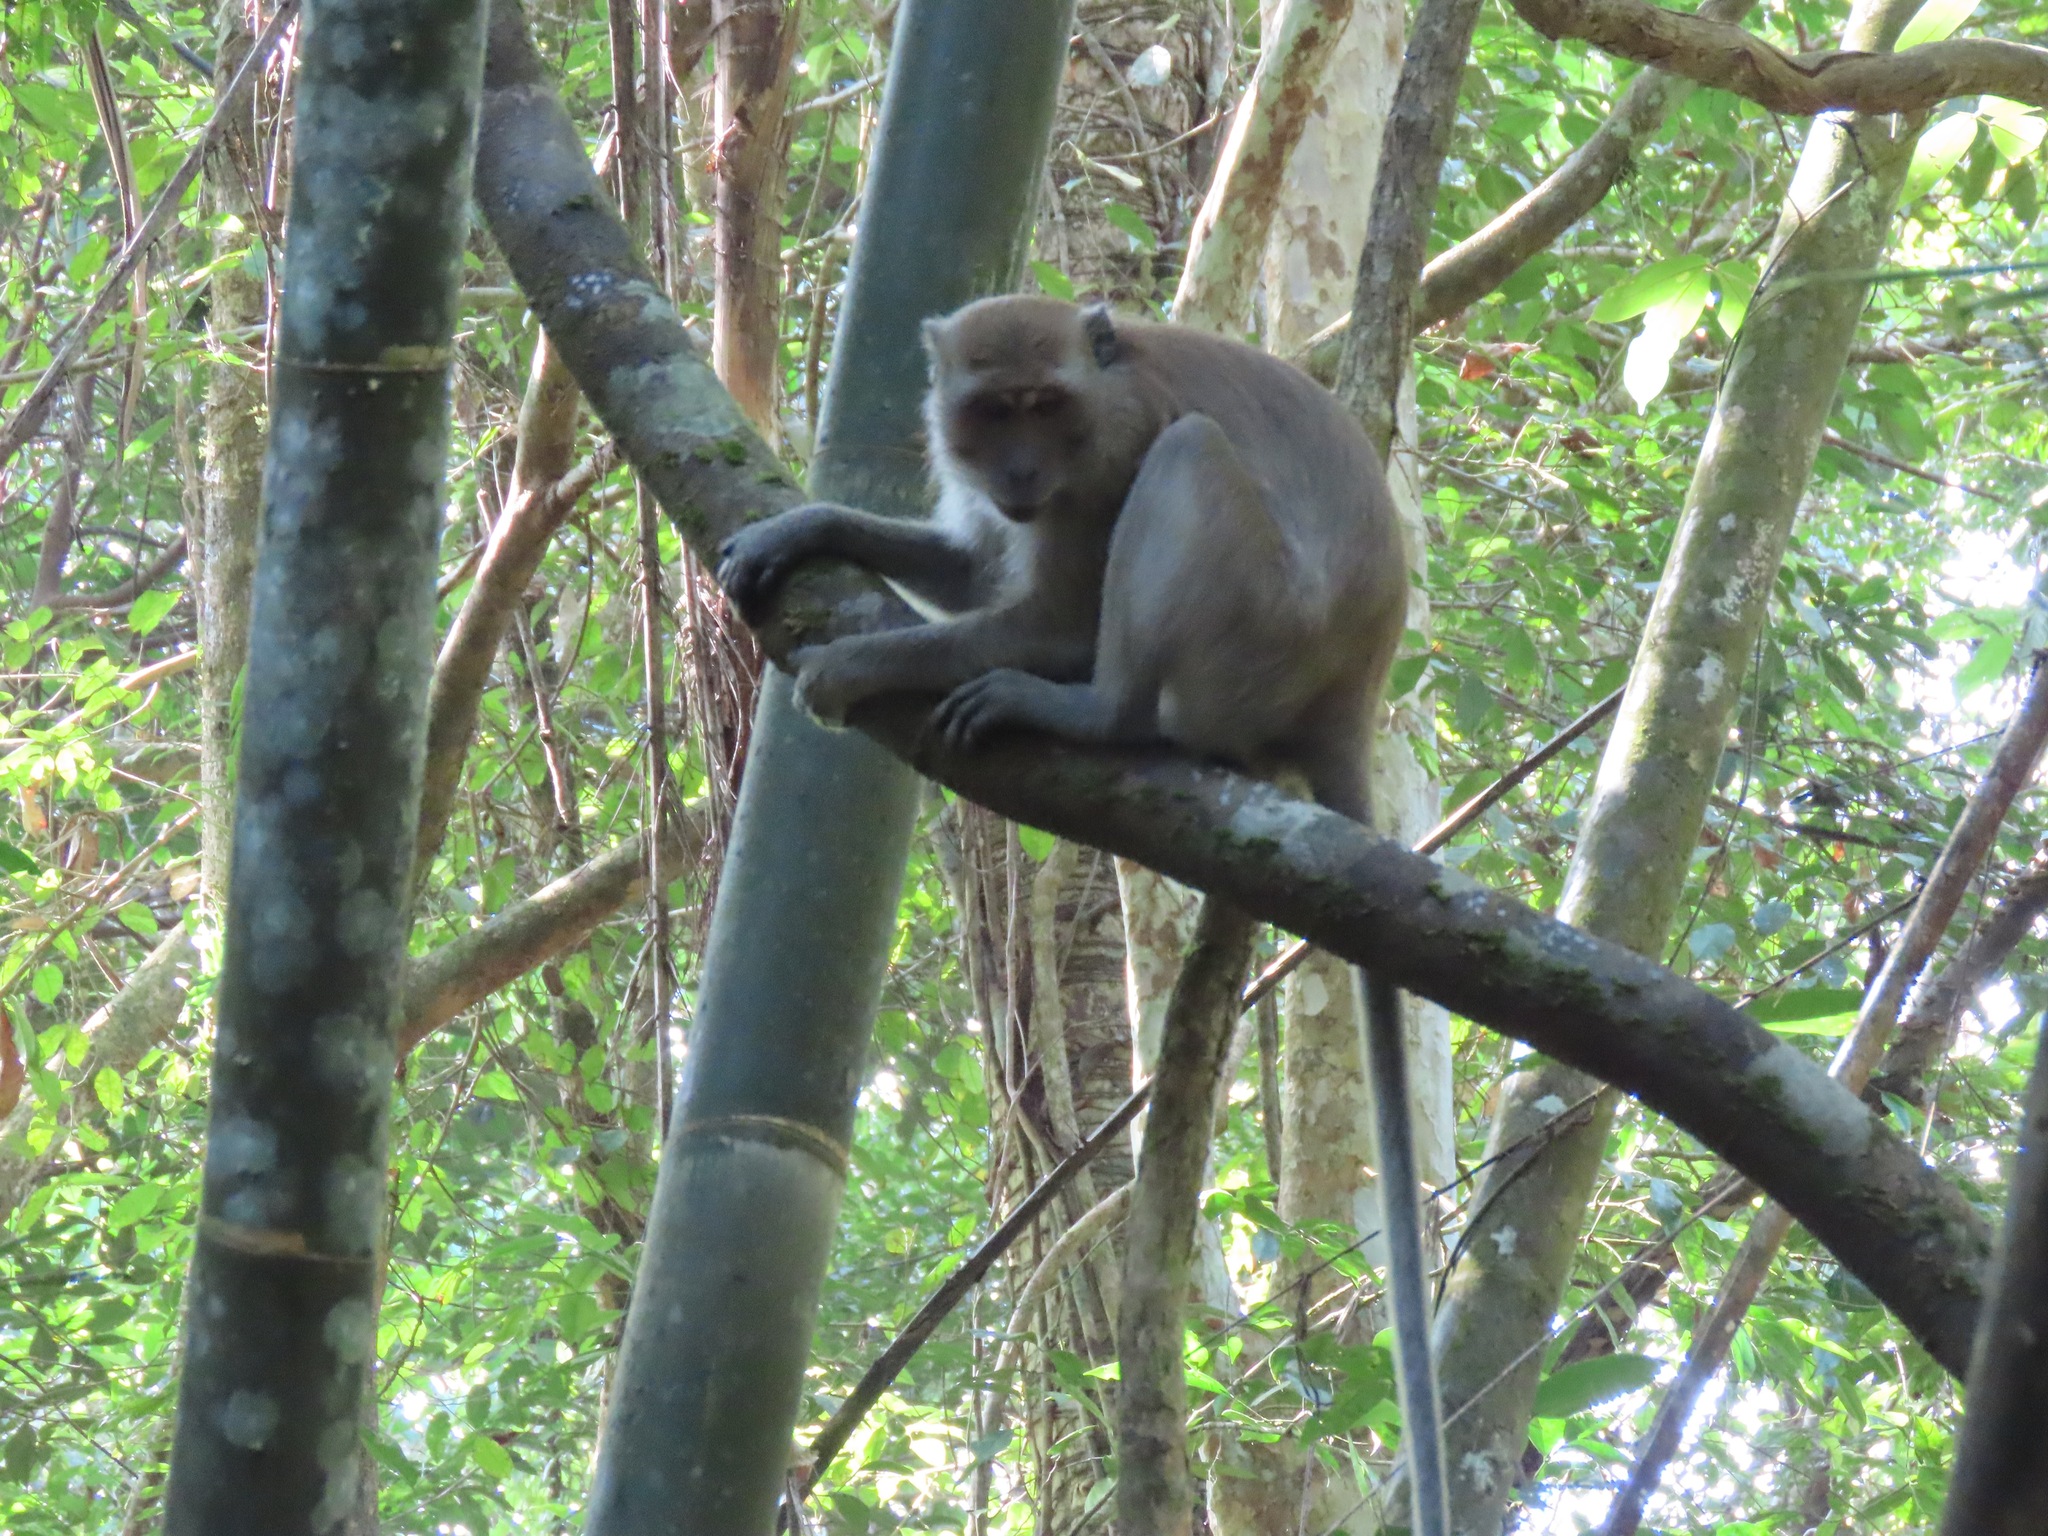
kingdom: Animalia
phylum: Chordata
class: Mammalia
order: Primates
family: Cercopithecidae
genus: Macaca
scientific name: Macaca fascicularis
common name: Crab-eating macaque
